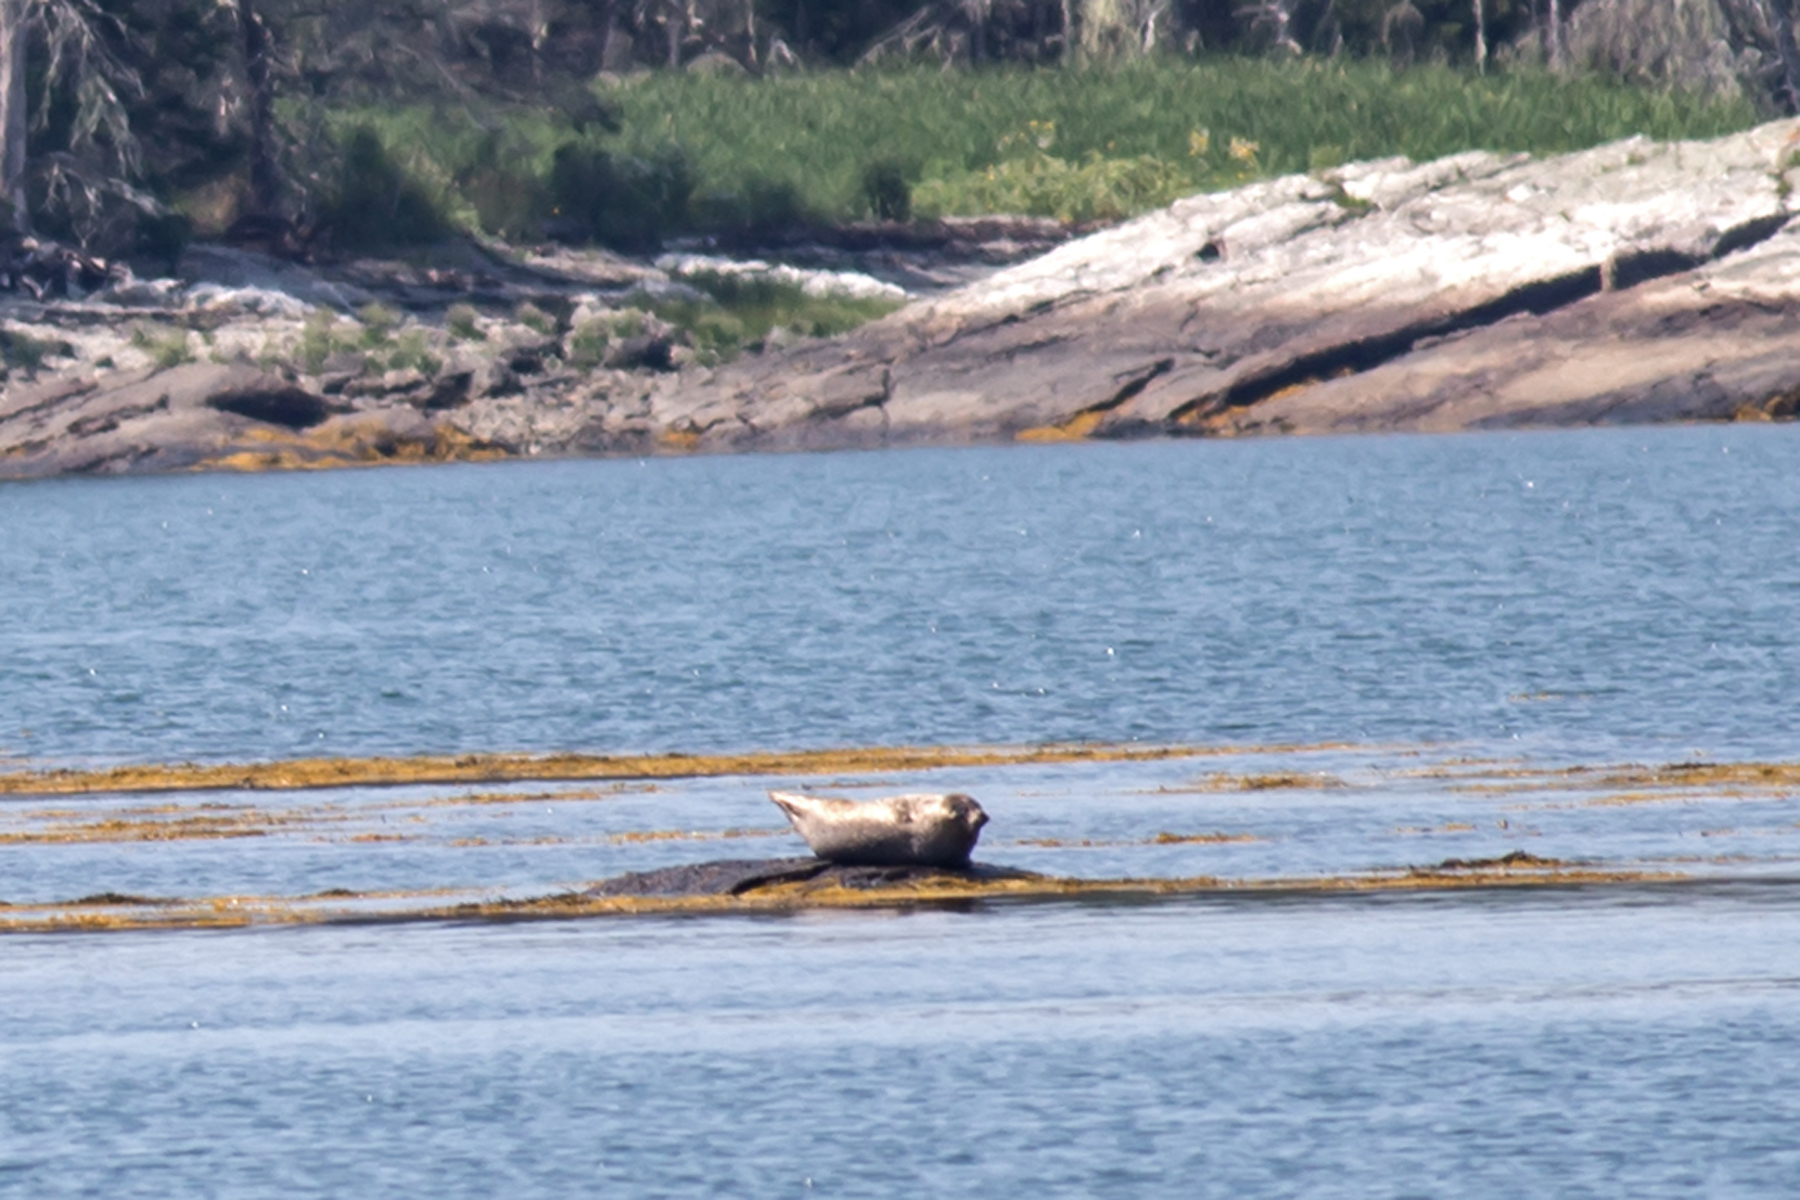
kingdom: Animalia
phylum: Chordata
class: Mammalia
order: Carnivora
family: Phocidae
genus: Phoca
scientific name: Phoca vitulina
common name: Harbor seal
